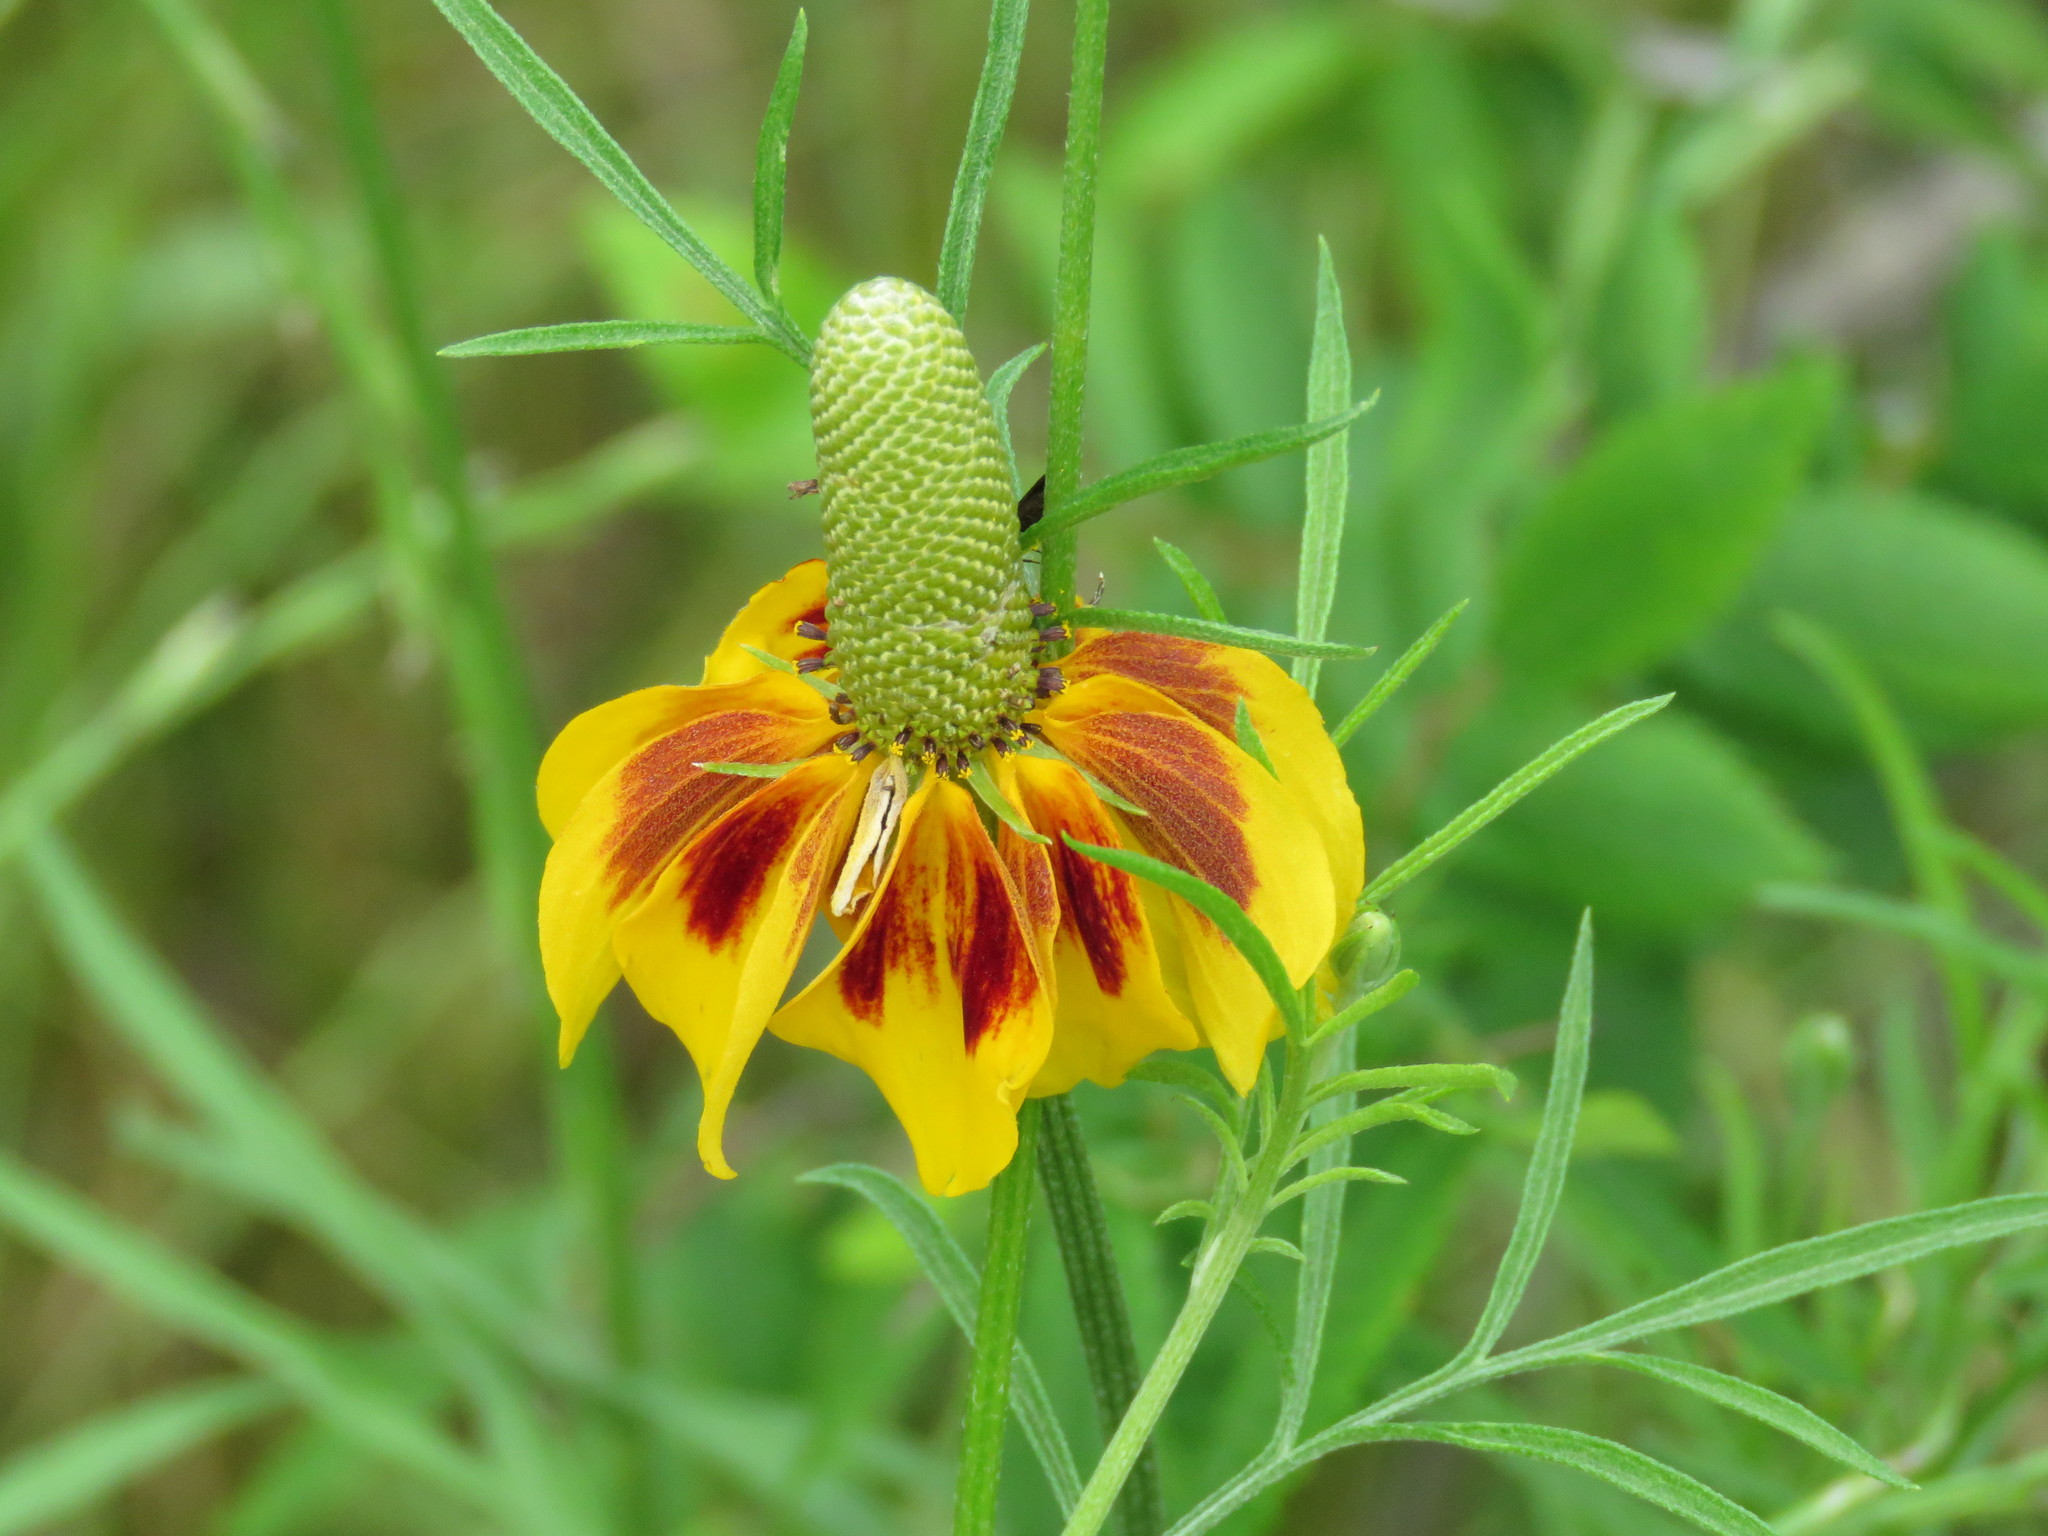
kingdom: Plantae
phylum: Tracheophyta
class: Magnoliopsida
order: Asterales
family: Asteraceae
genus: Ratibida
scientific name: Ratibida columnifera
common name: Prairie coneflower
